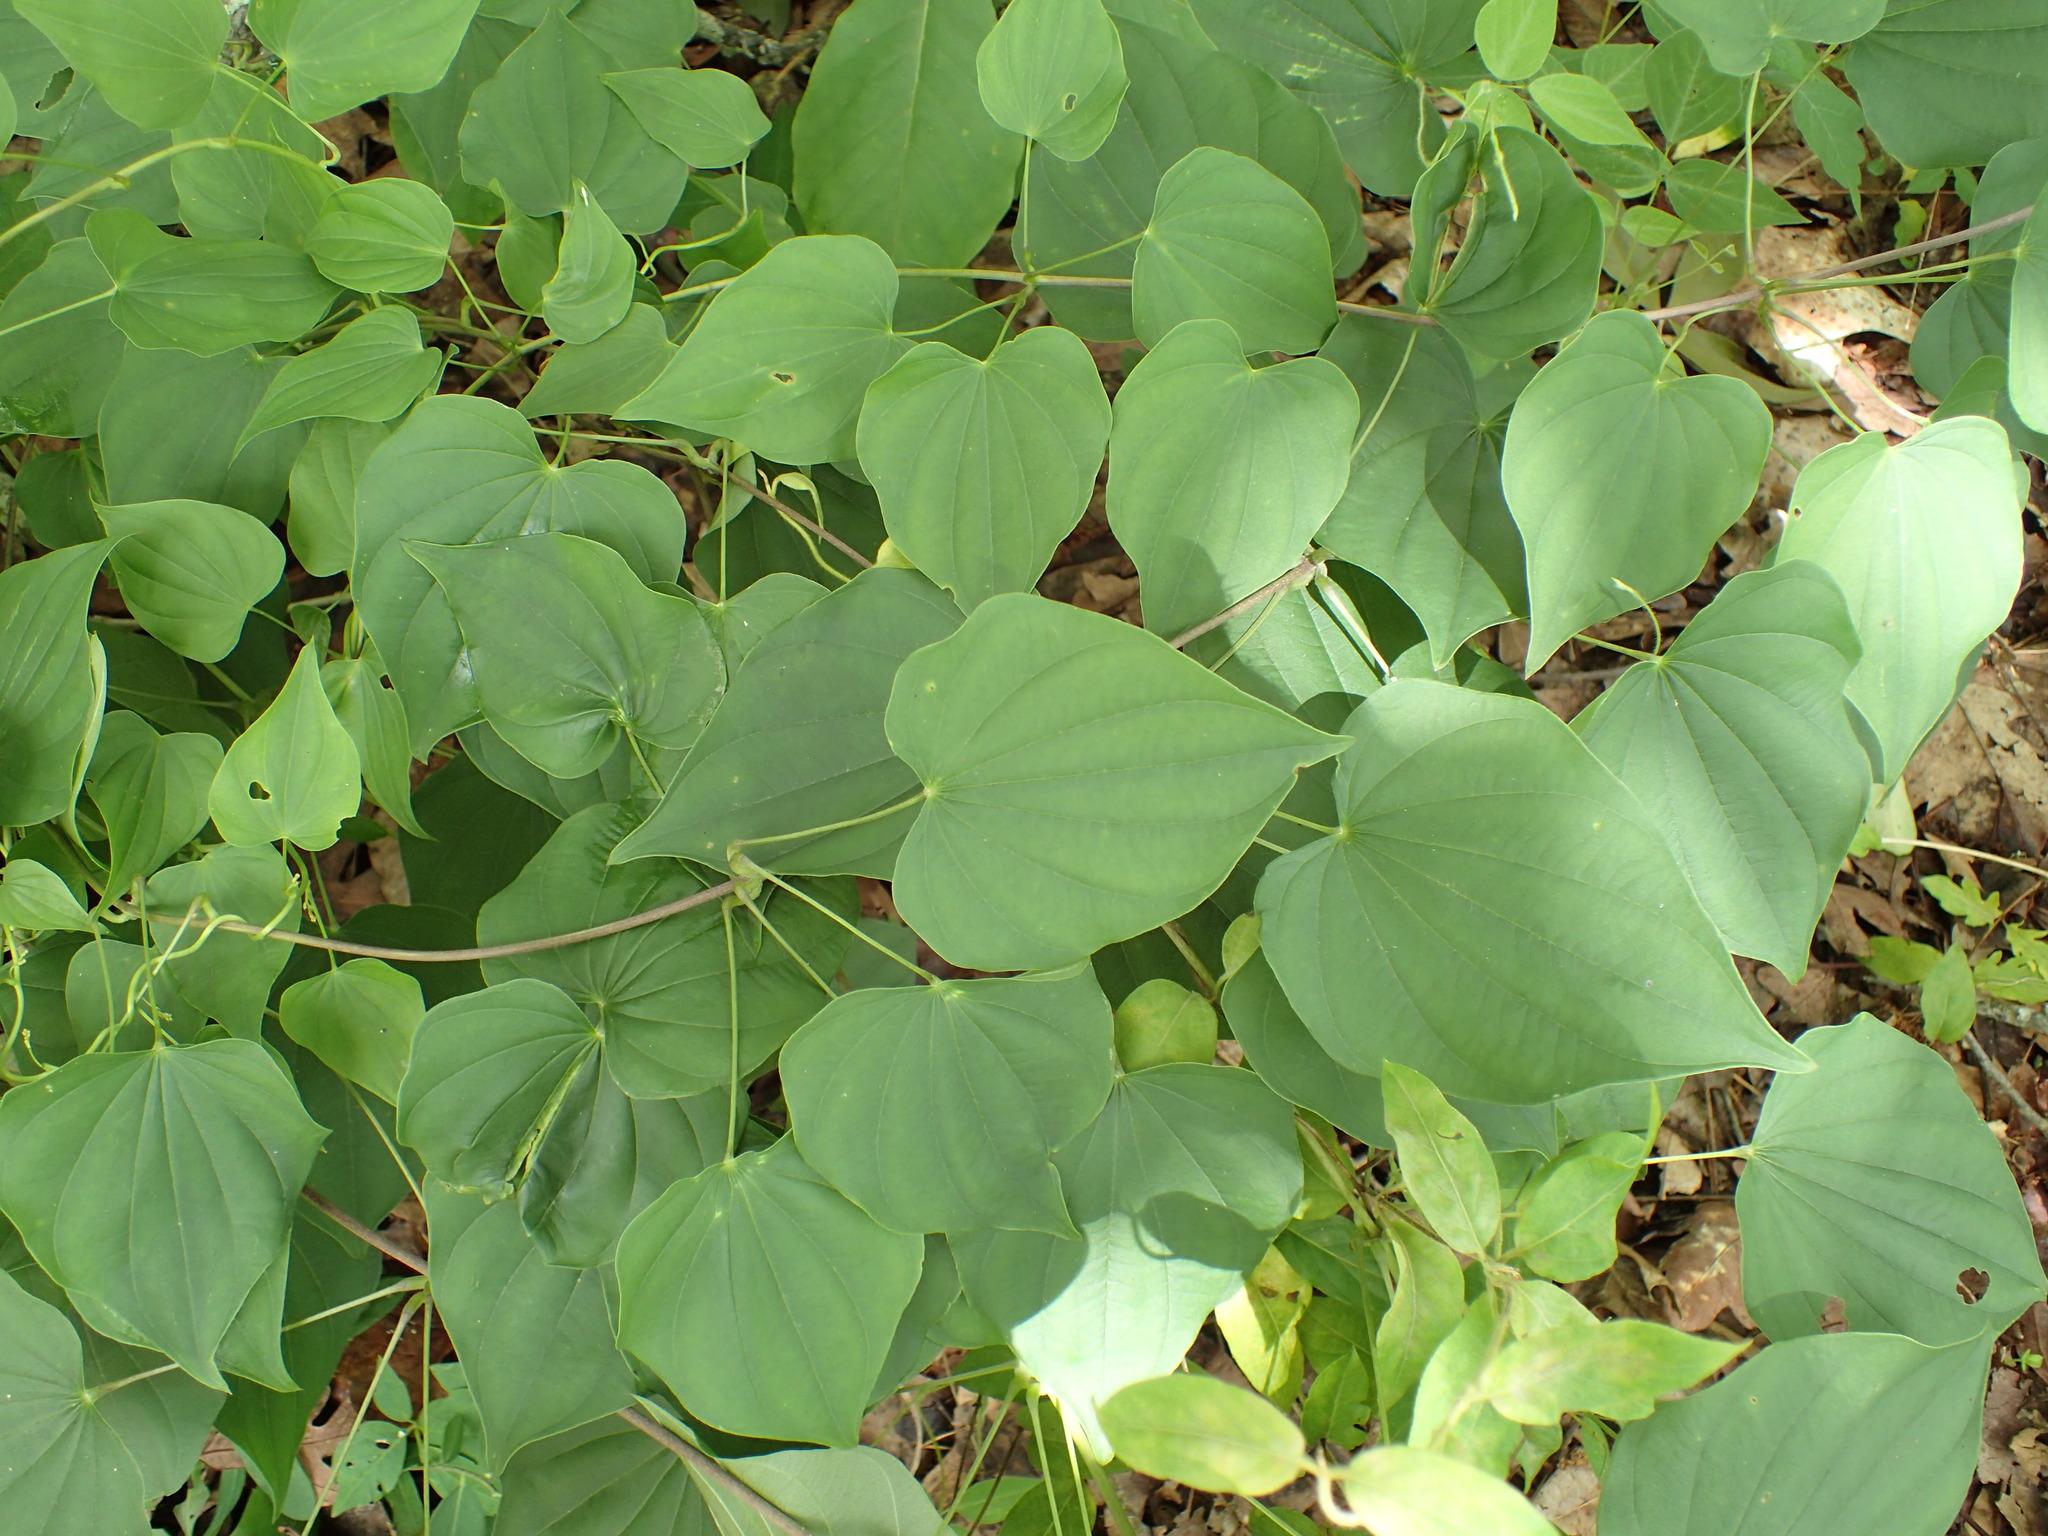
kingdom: Plantae
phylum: Tracheophyta
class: Liliopsida
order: Dioscoreales
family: Dioscoreaceae
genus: Dioscorea
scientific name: Dioscorea villosa
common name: Wild yam
